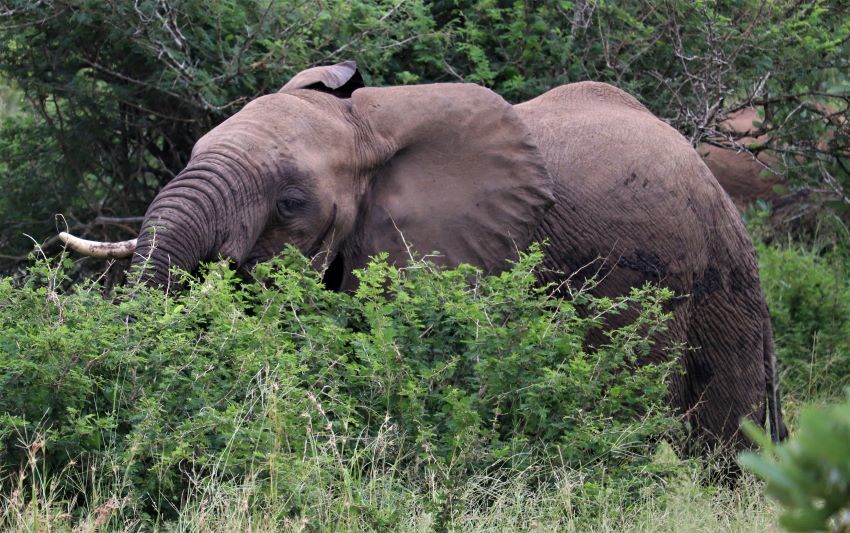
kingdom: Animalia
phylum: Chordata
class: Mammalia
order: Proboscidea
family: Elephantidae
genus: Loxodonta
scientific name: Loxodonta africana
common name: African elephant
